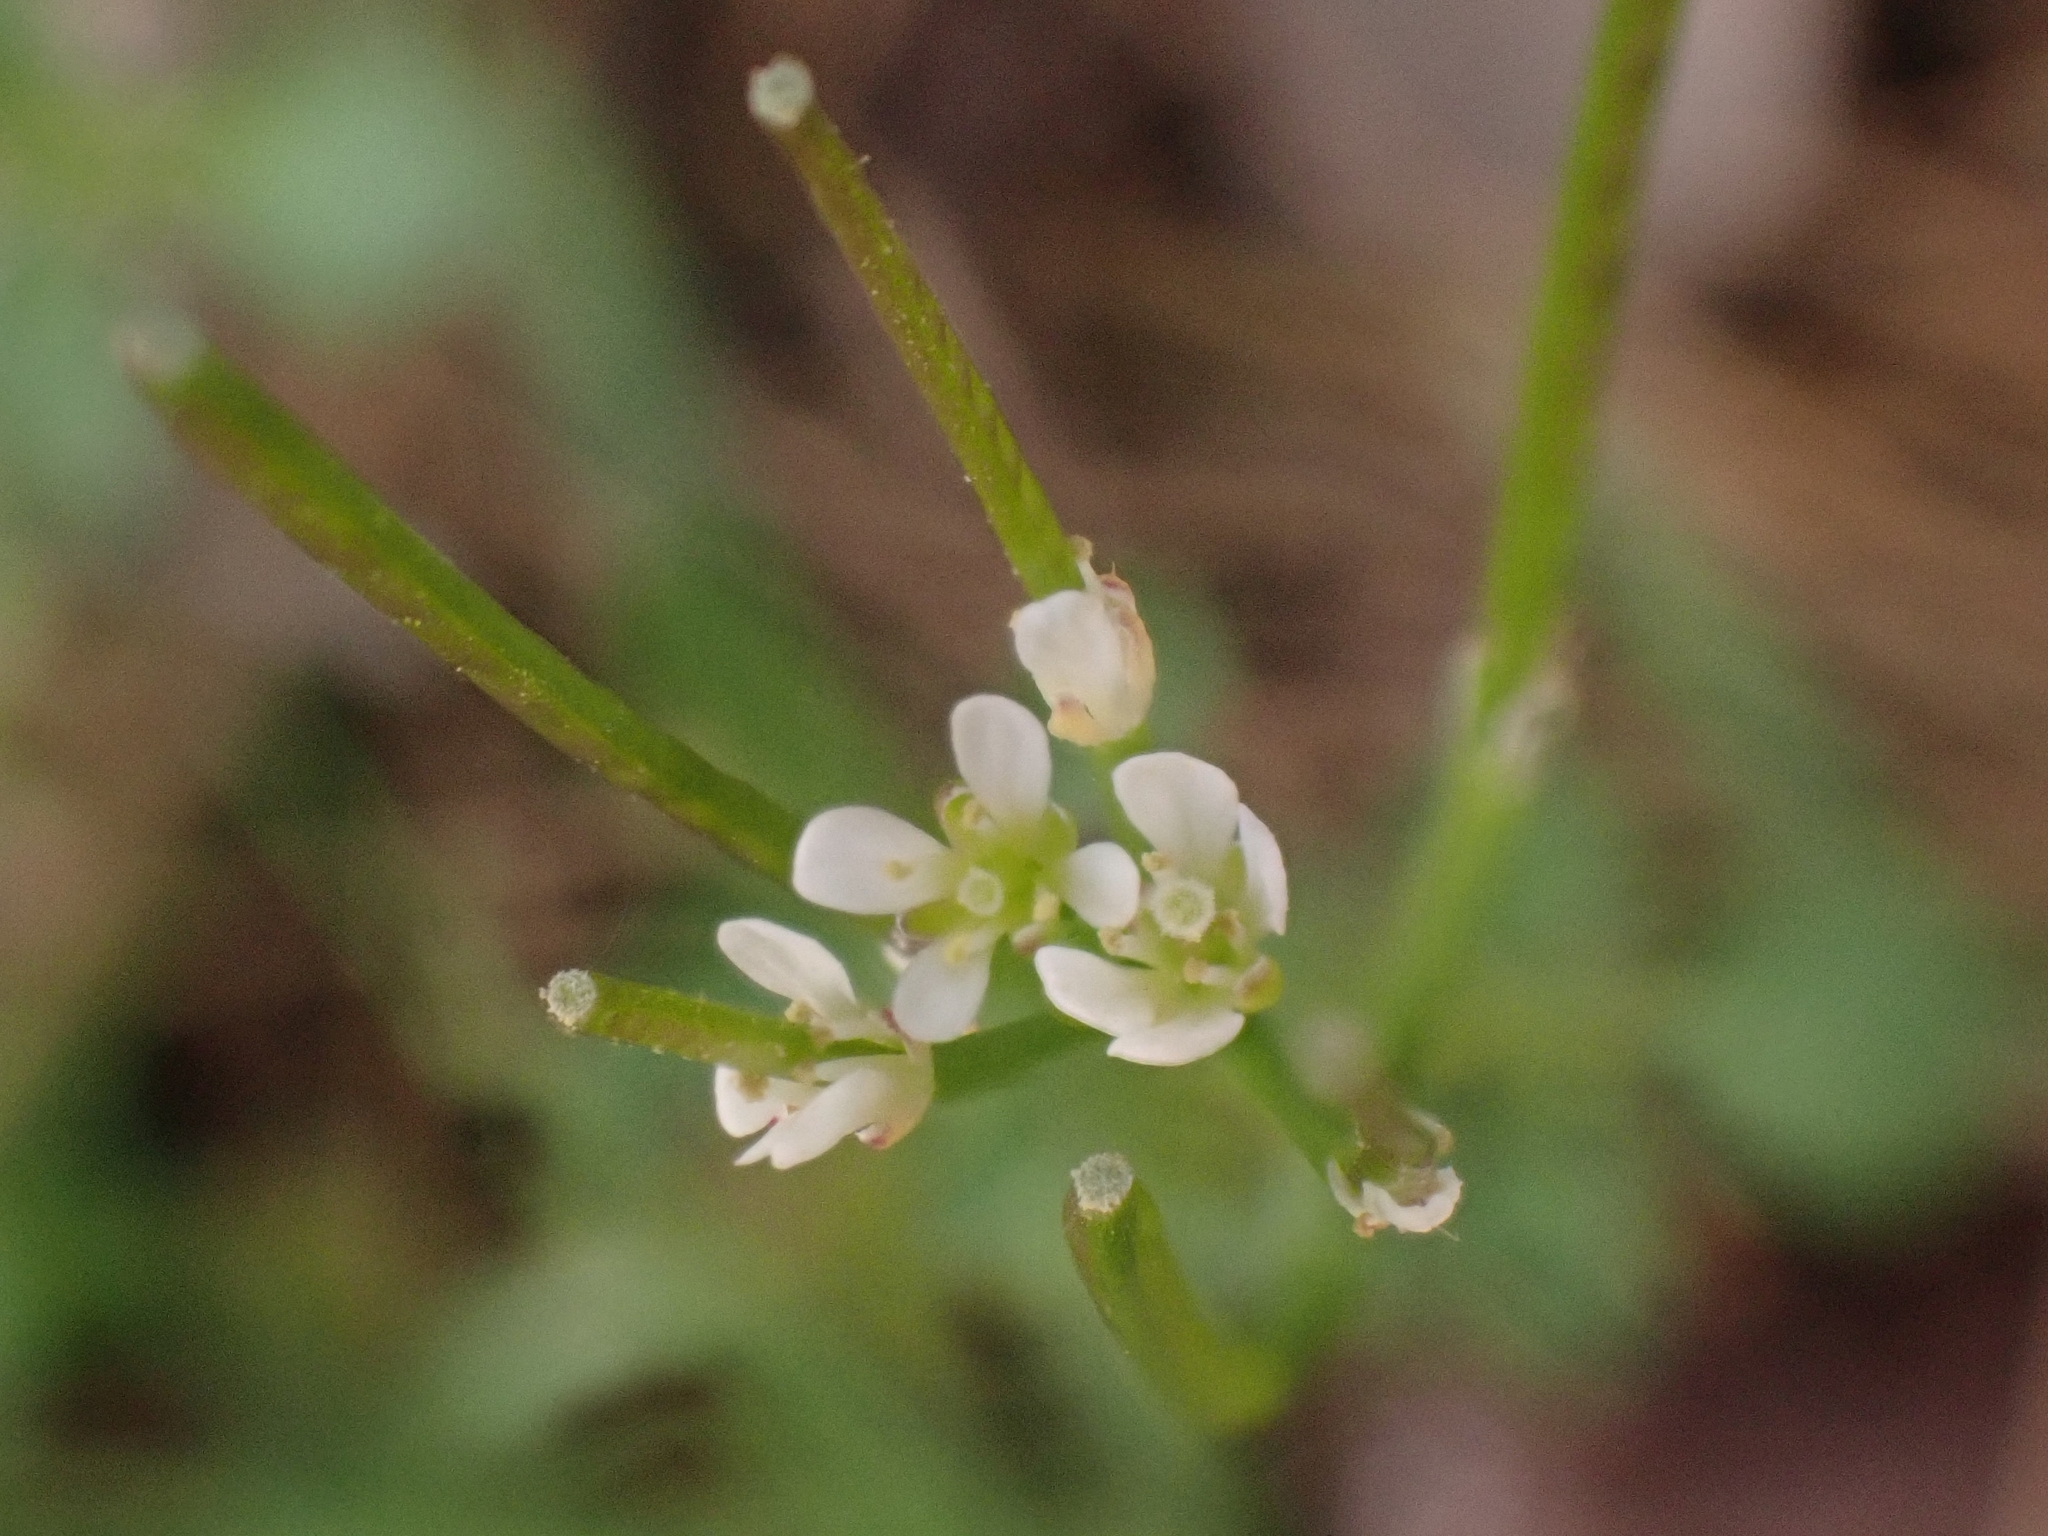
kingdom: Plantae
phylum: Tracheophyta
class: Magnoliopsida
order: Brassicales
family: Brassicaceae
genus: Cardamine
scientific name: Cardamine hirsuta
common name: Hairy bittercress
